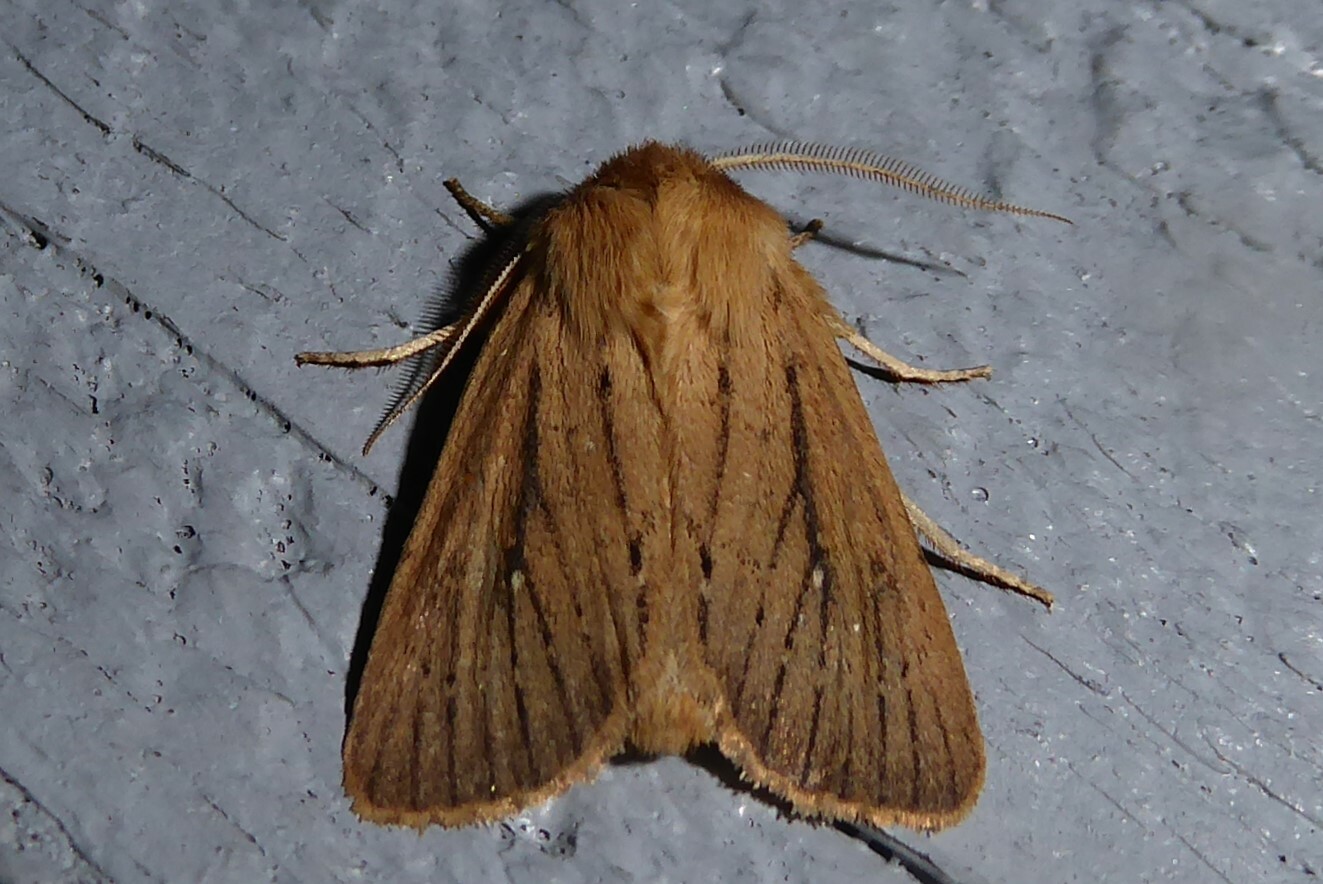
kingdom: Animalia
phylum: Arthropoda
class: Insecta
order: Lepidoptera
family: Noctuidae
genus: Ichneutica
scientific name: Ichneutica
